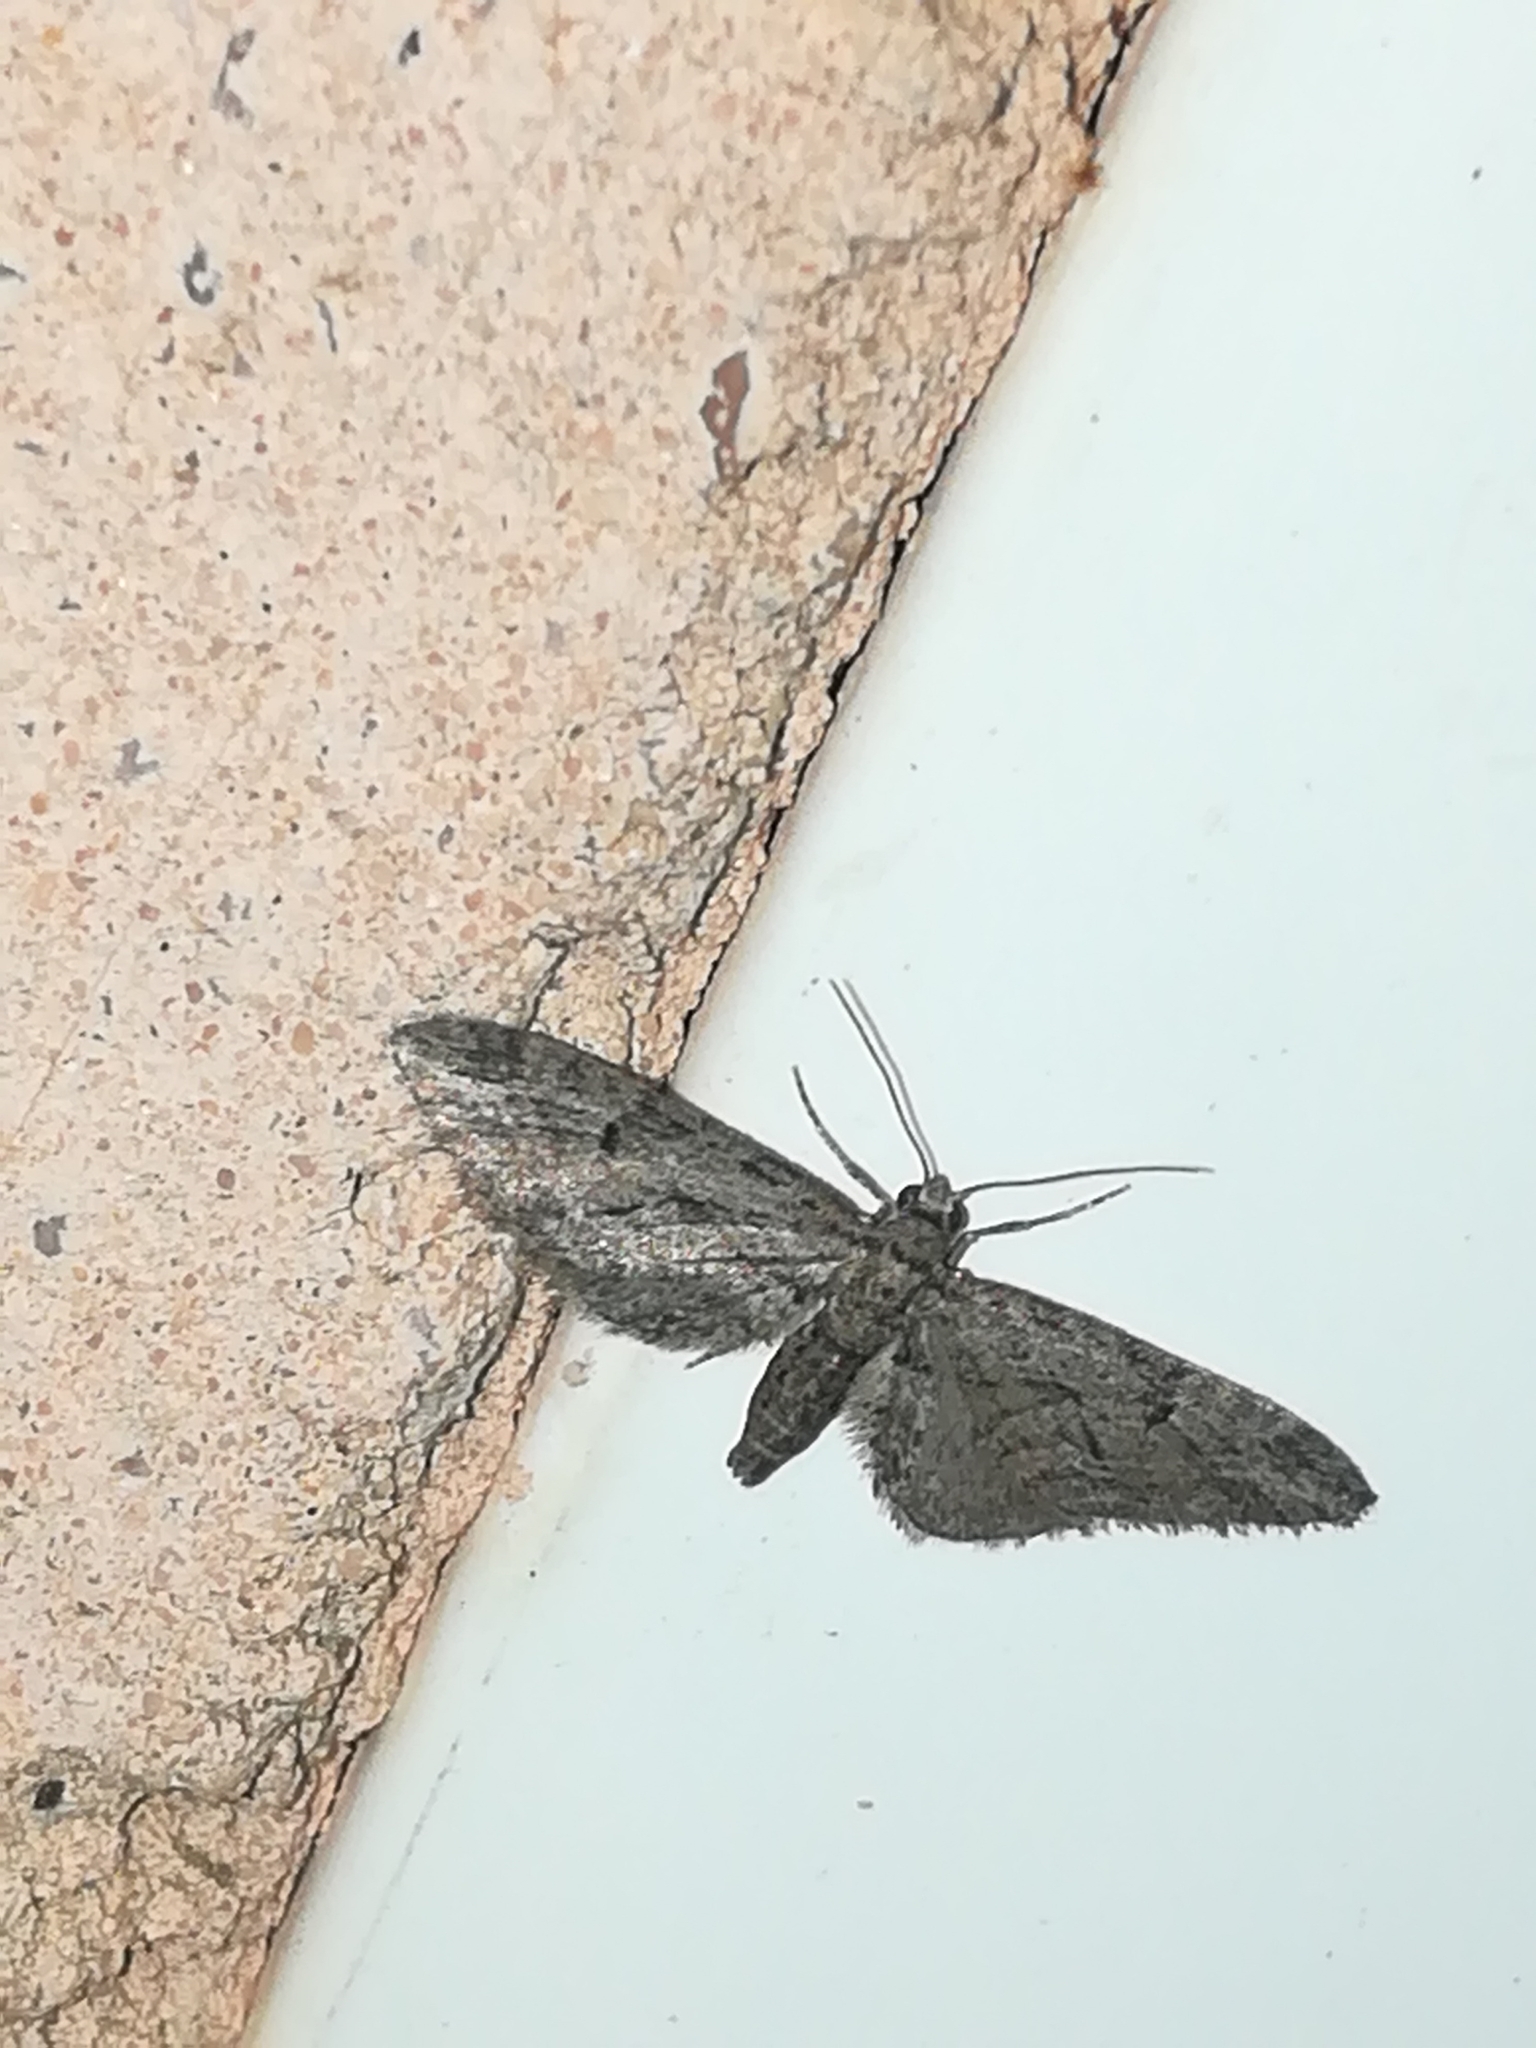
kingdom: Animalia
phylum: Arthropoda
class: Insecta
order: Lepidoptera
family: Geometridae
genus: Eupithecia
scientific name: Eupithecia oxycedrata
